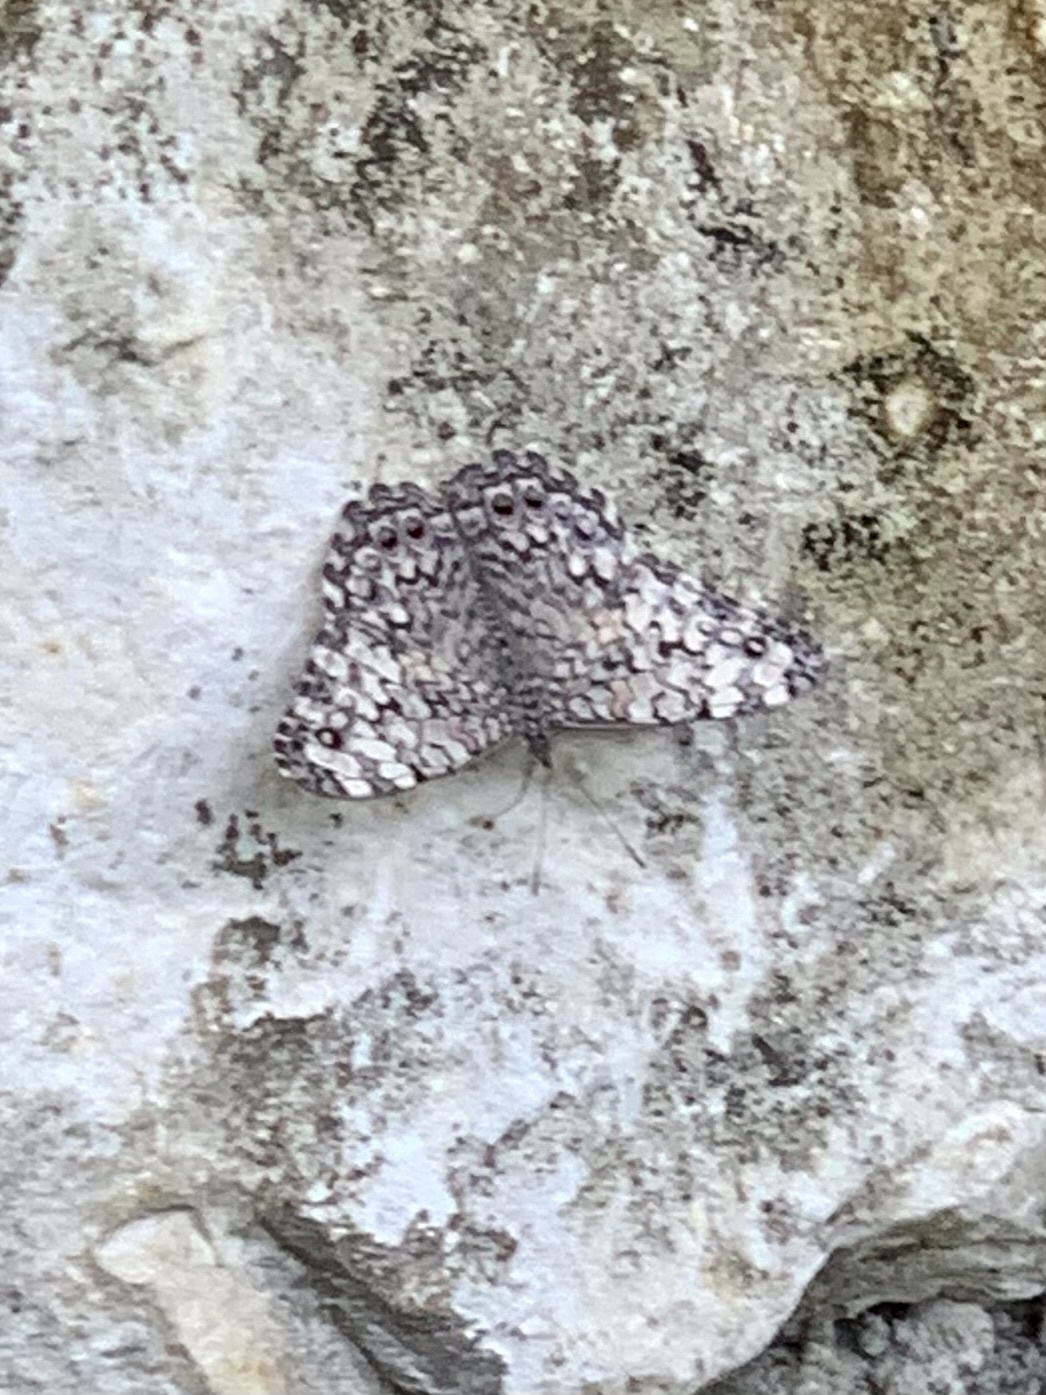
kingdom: Animalia
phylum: Arthropoda
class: Insecta
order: Lepidoptera
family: Nymphalidae
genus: Hamadryas
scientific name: Hamadryas februa
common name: Gray cracker
